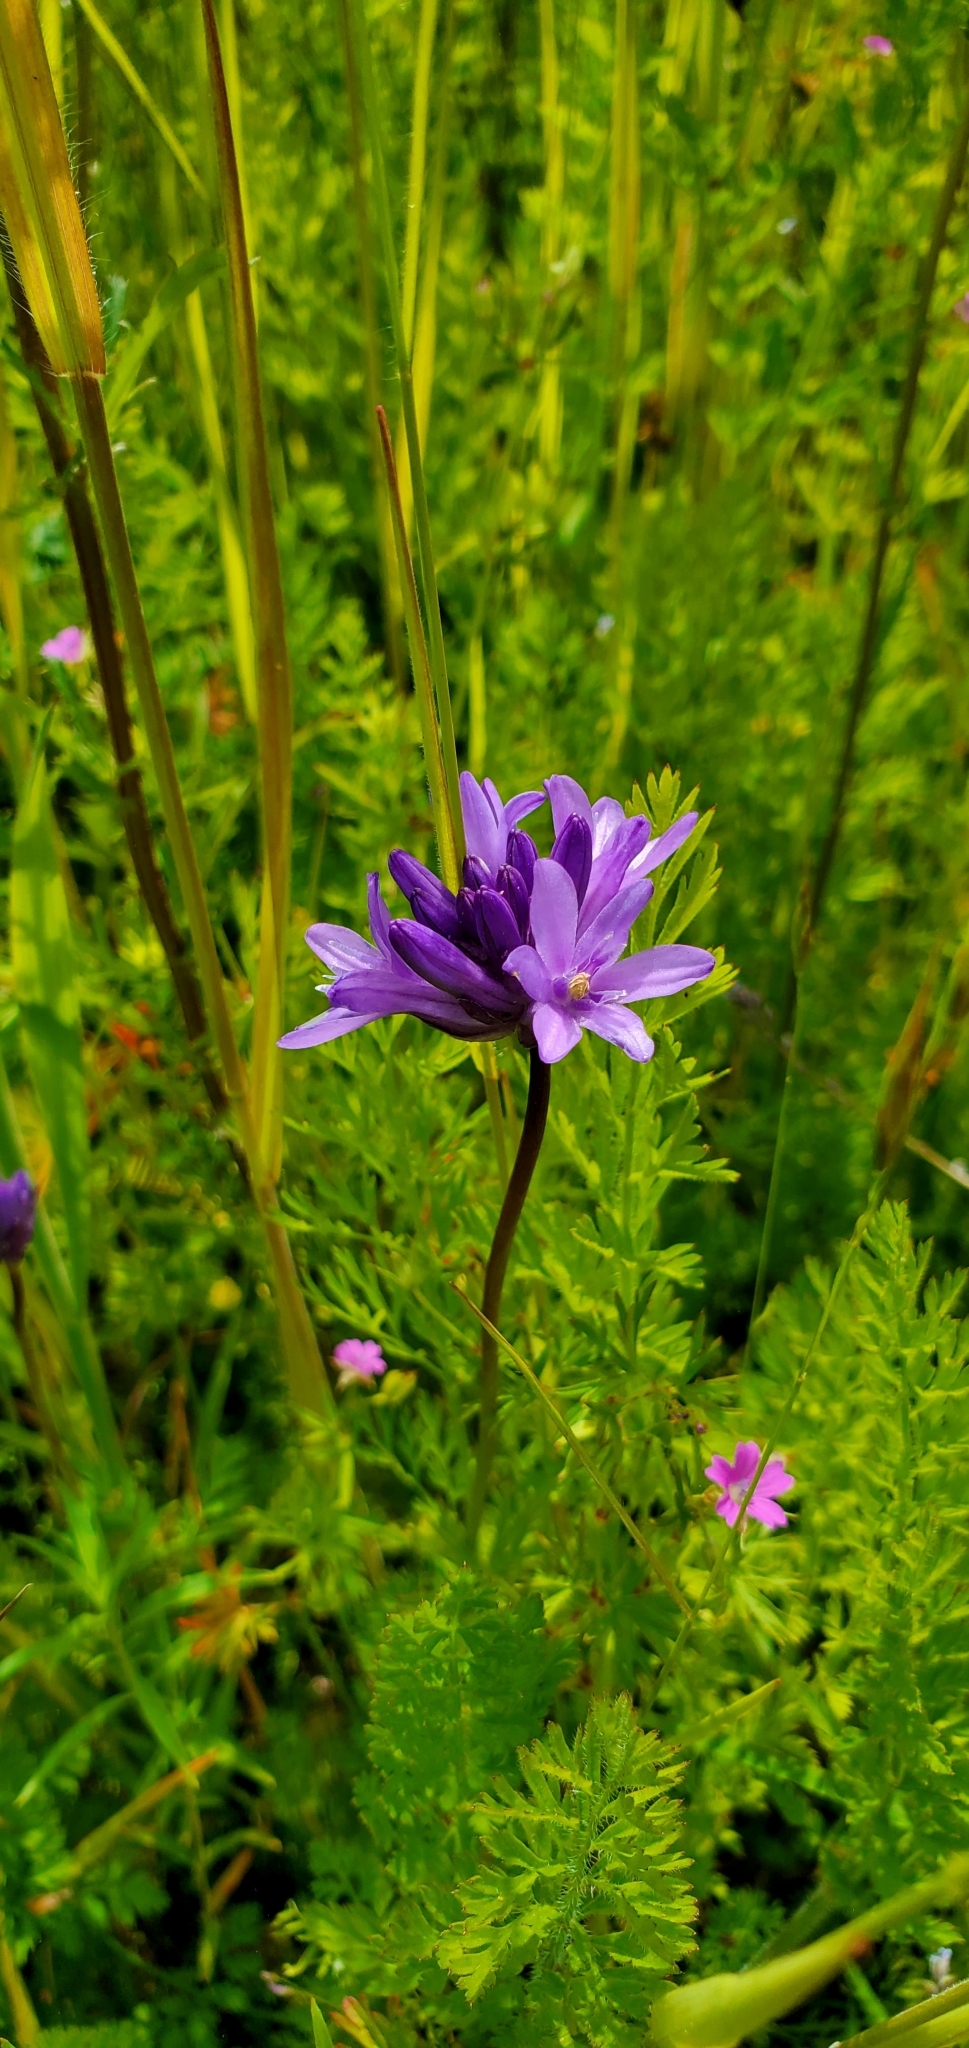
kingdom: Plantae
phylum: Tracheophyta
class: Liliopsida
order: Asparagales
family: Asparagaceae
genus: Dichelostemma
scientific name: Dichelostemma congestum
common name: Fork-tooth ookow
